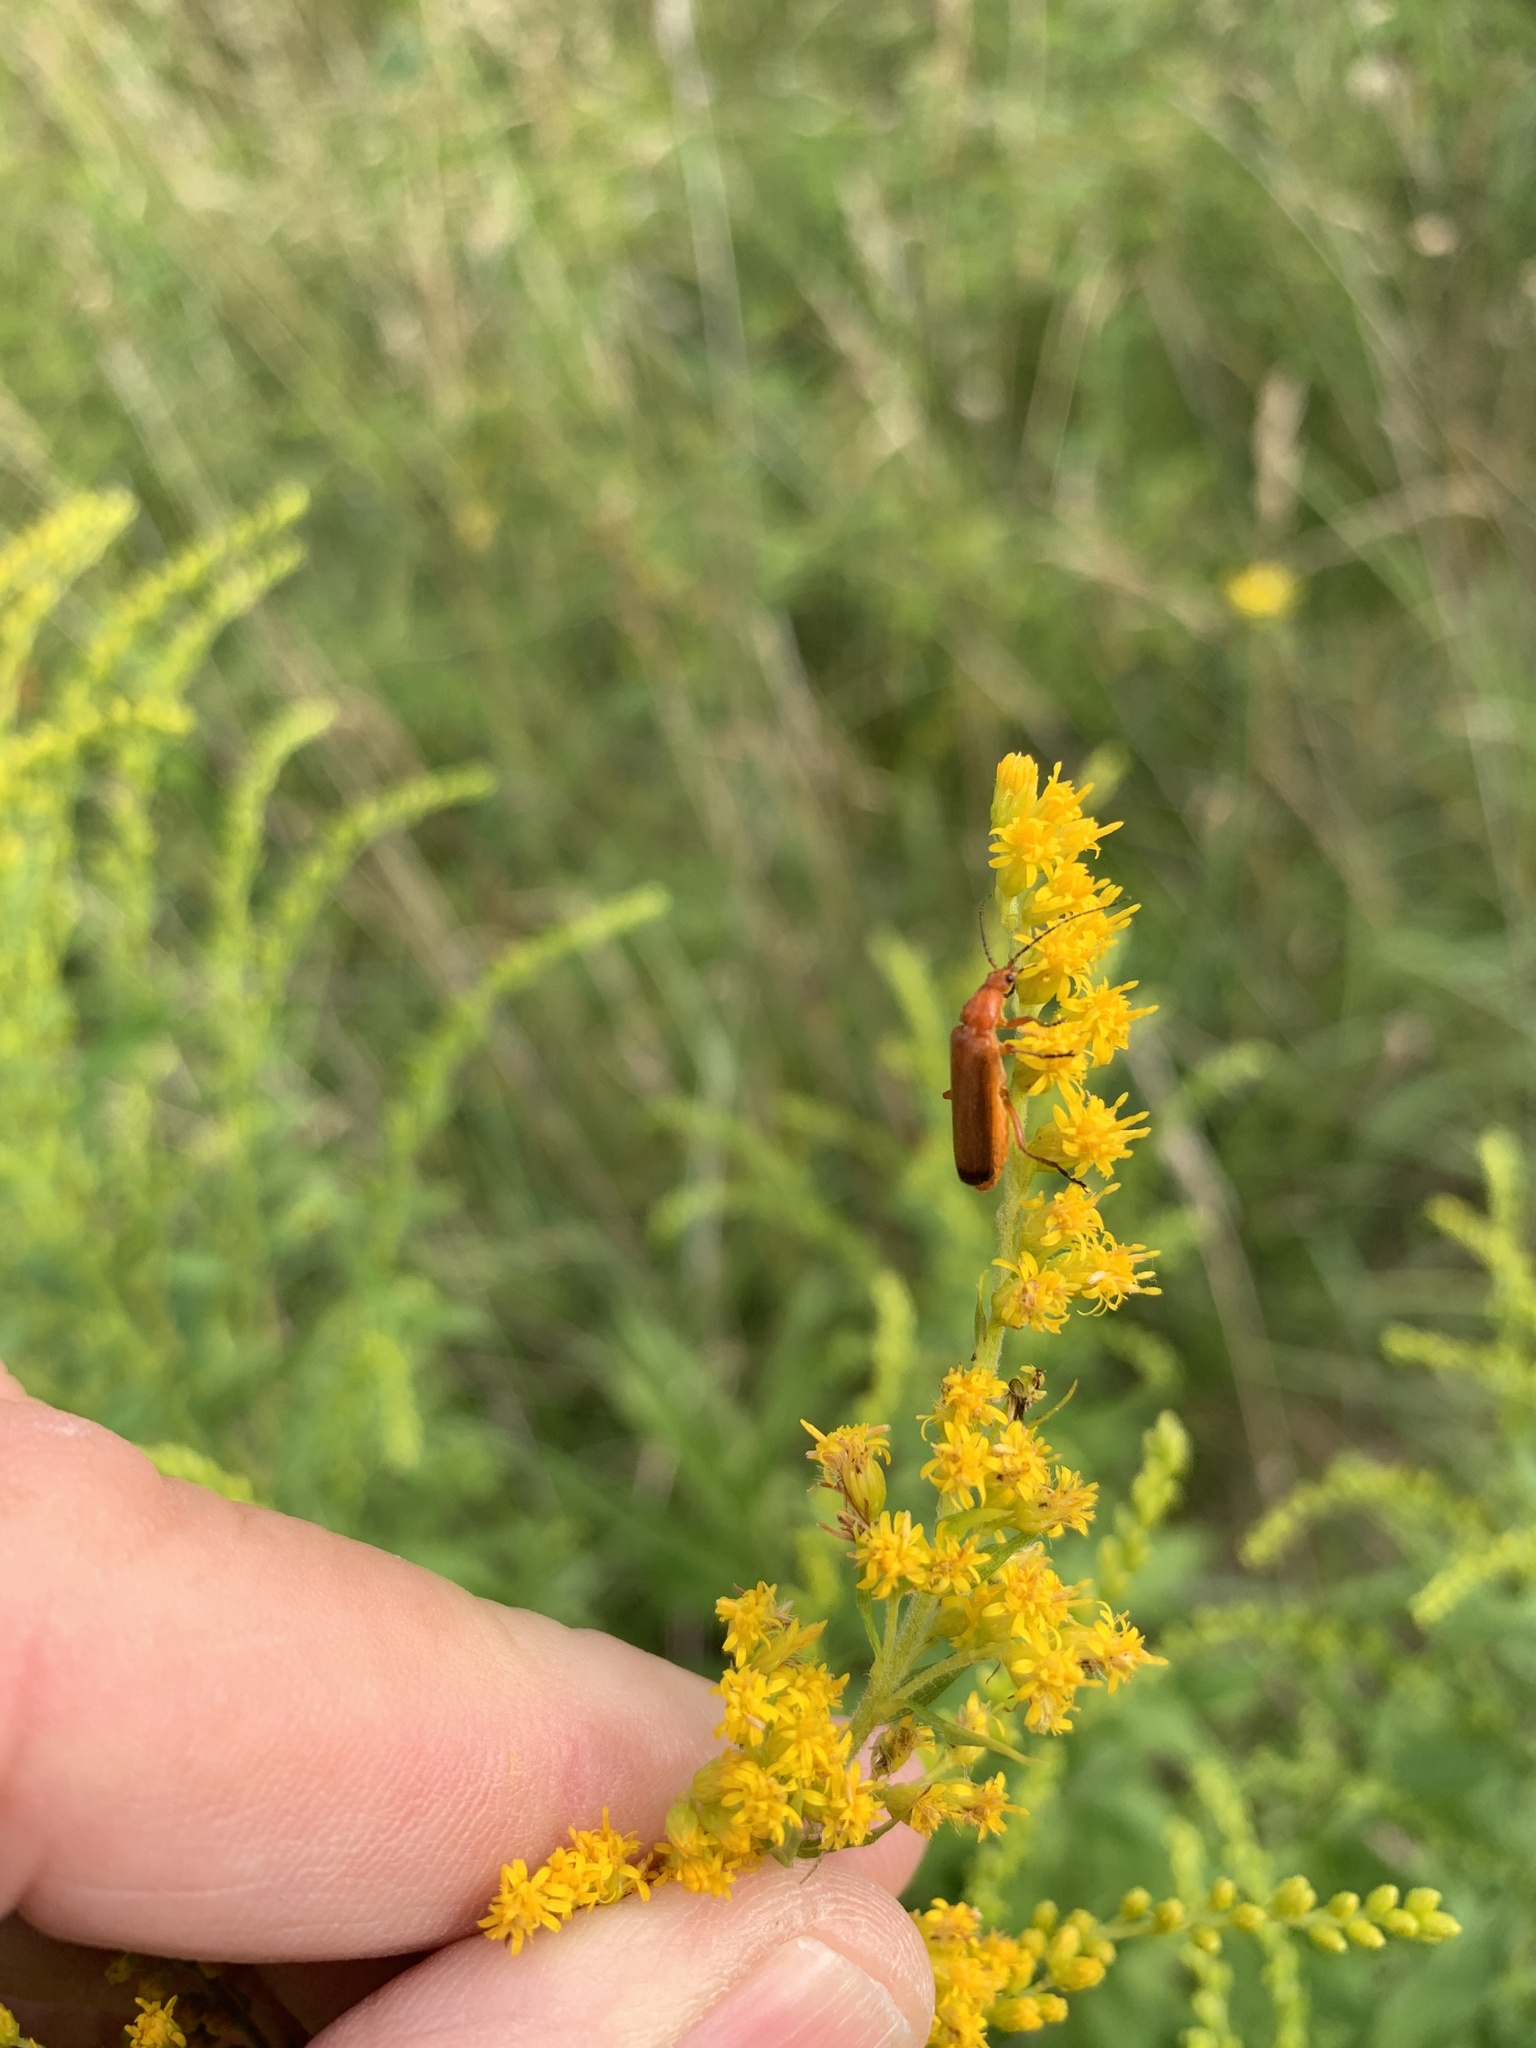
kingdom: Animalia
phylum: Arthropoda
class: Insecta
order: Coleoptera
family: Cantharidae
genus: Rhagonycha
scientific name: Rhagonycha fulva
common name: Common red soldier beetle
